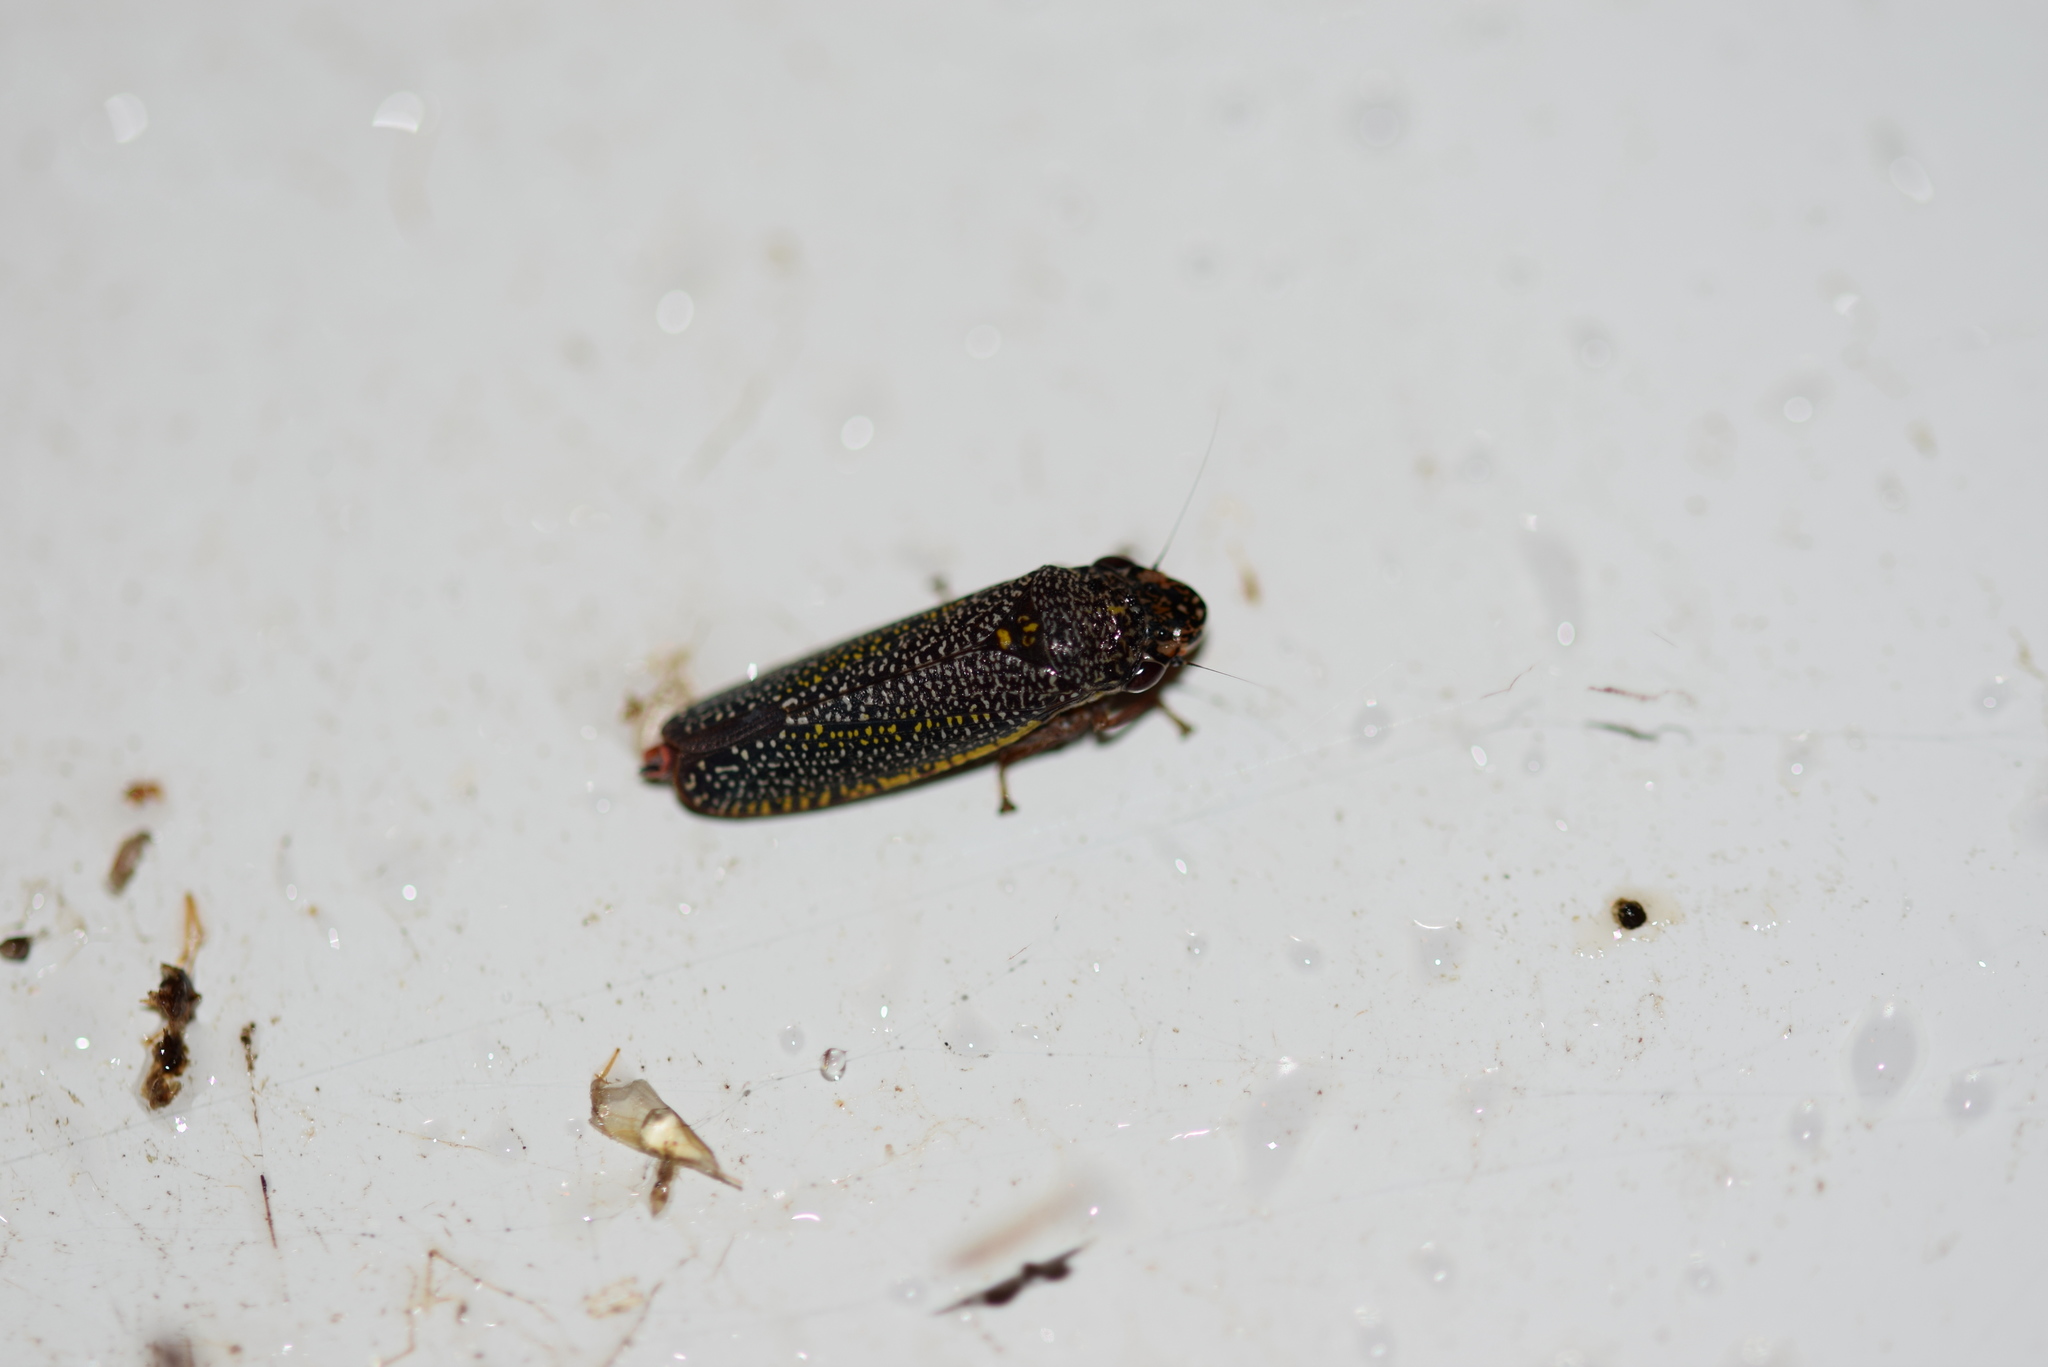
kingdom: Animalia
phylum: Arthropoda
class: Insecta
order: Hemiptera
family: Cicadellidae
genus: Paraulacizes
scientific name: Paraulacizes irrorata
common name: Speckled sharpshooter
